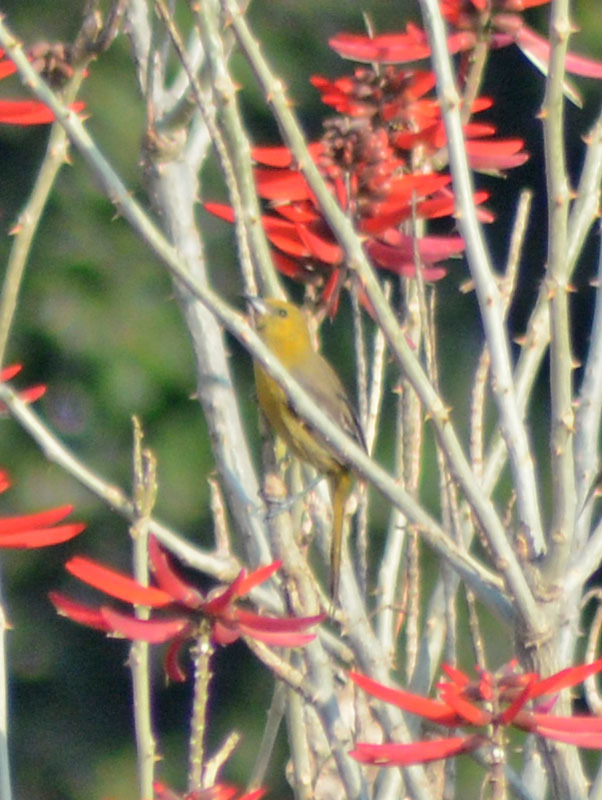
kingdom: Animalia
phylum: Chordata
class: Aves
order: Passeriformes
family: Icteridae
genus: Icterus
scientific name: Icterus cucullatus
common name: Hooded oriole
